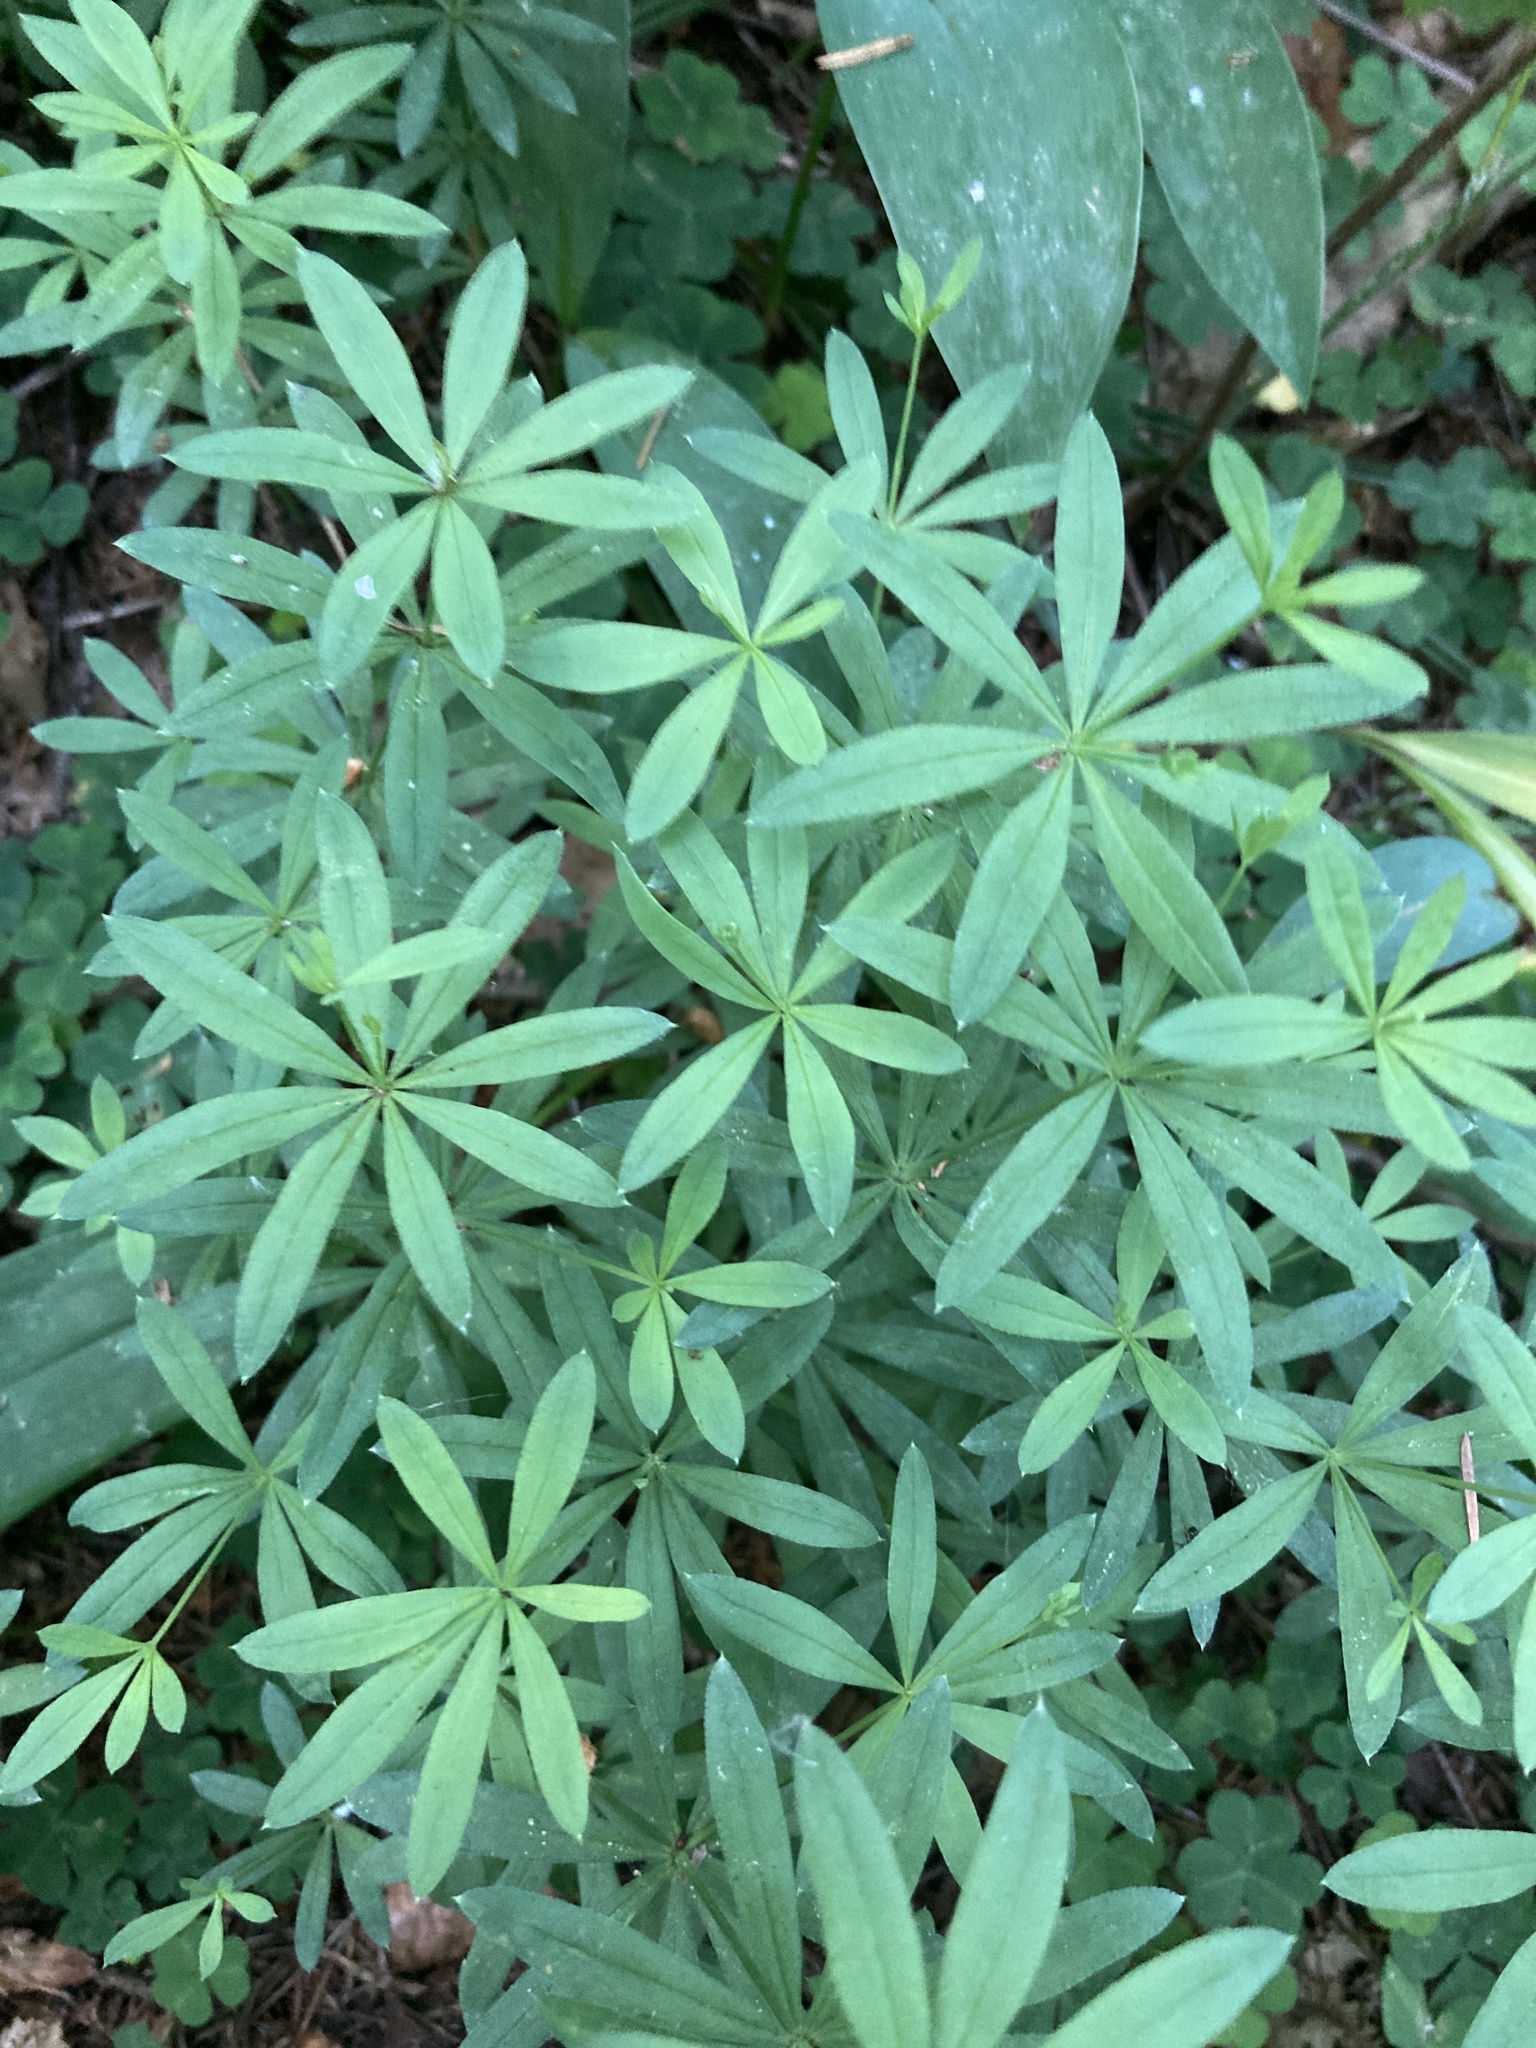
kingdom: Plantae
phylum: Tracheophyta
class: Magnoliopsida
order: Gentianales
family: Rubiaceae
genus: Galium
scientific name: Galium intermedium
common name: Bedstraw
